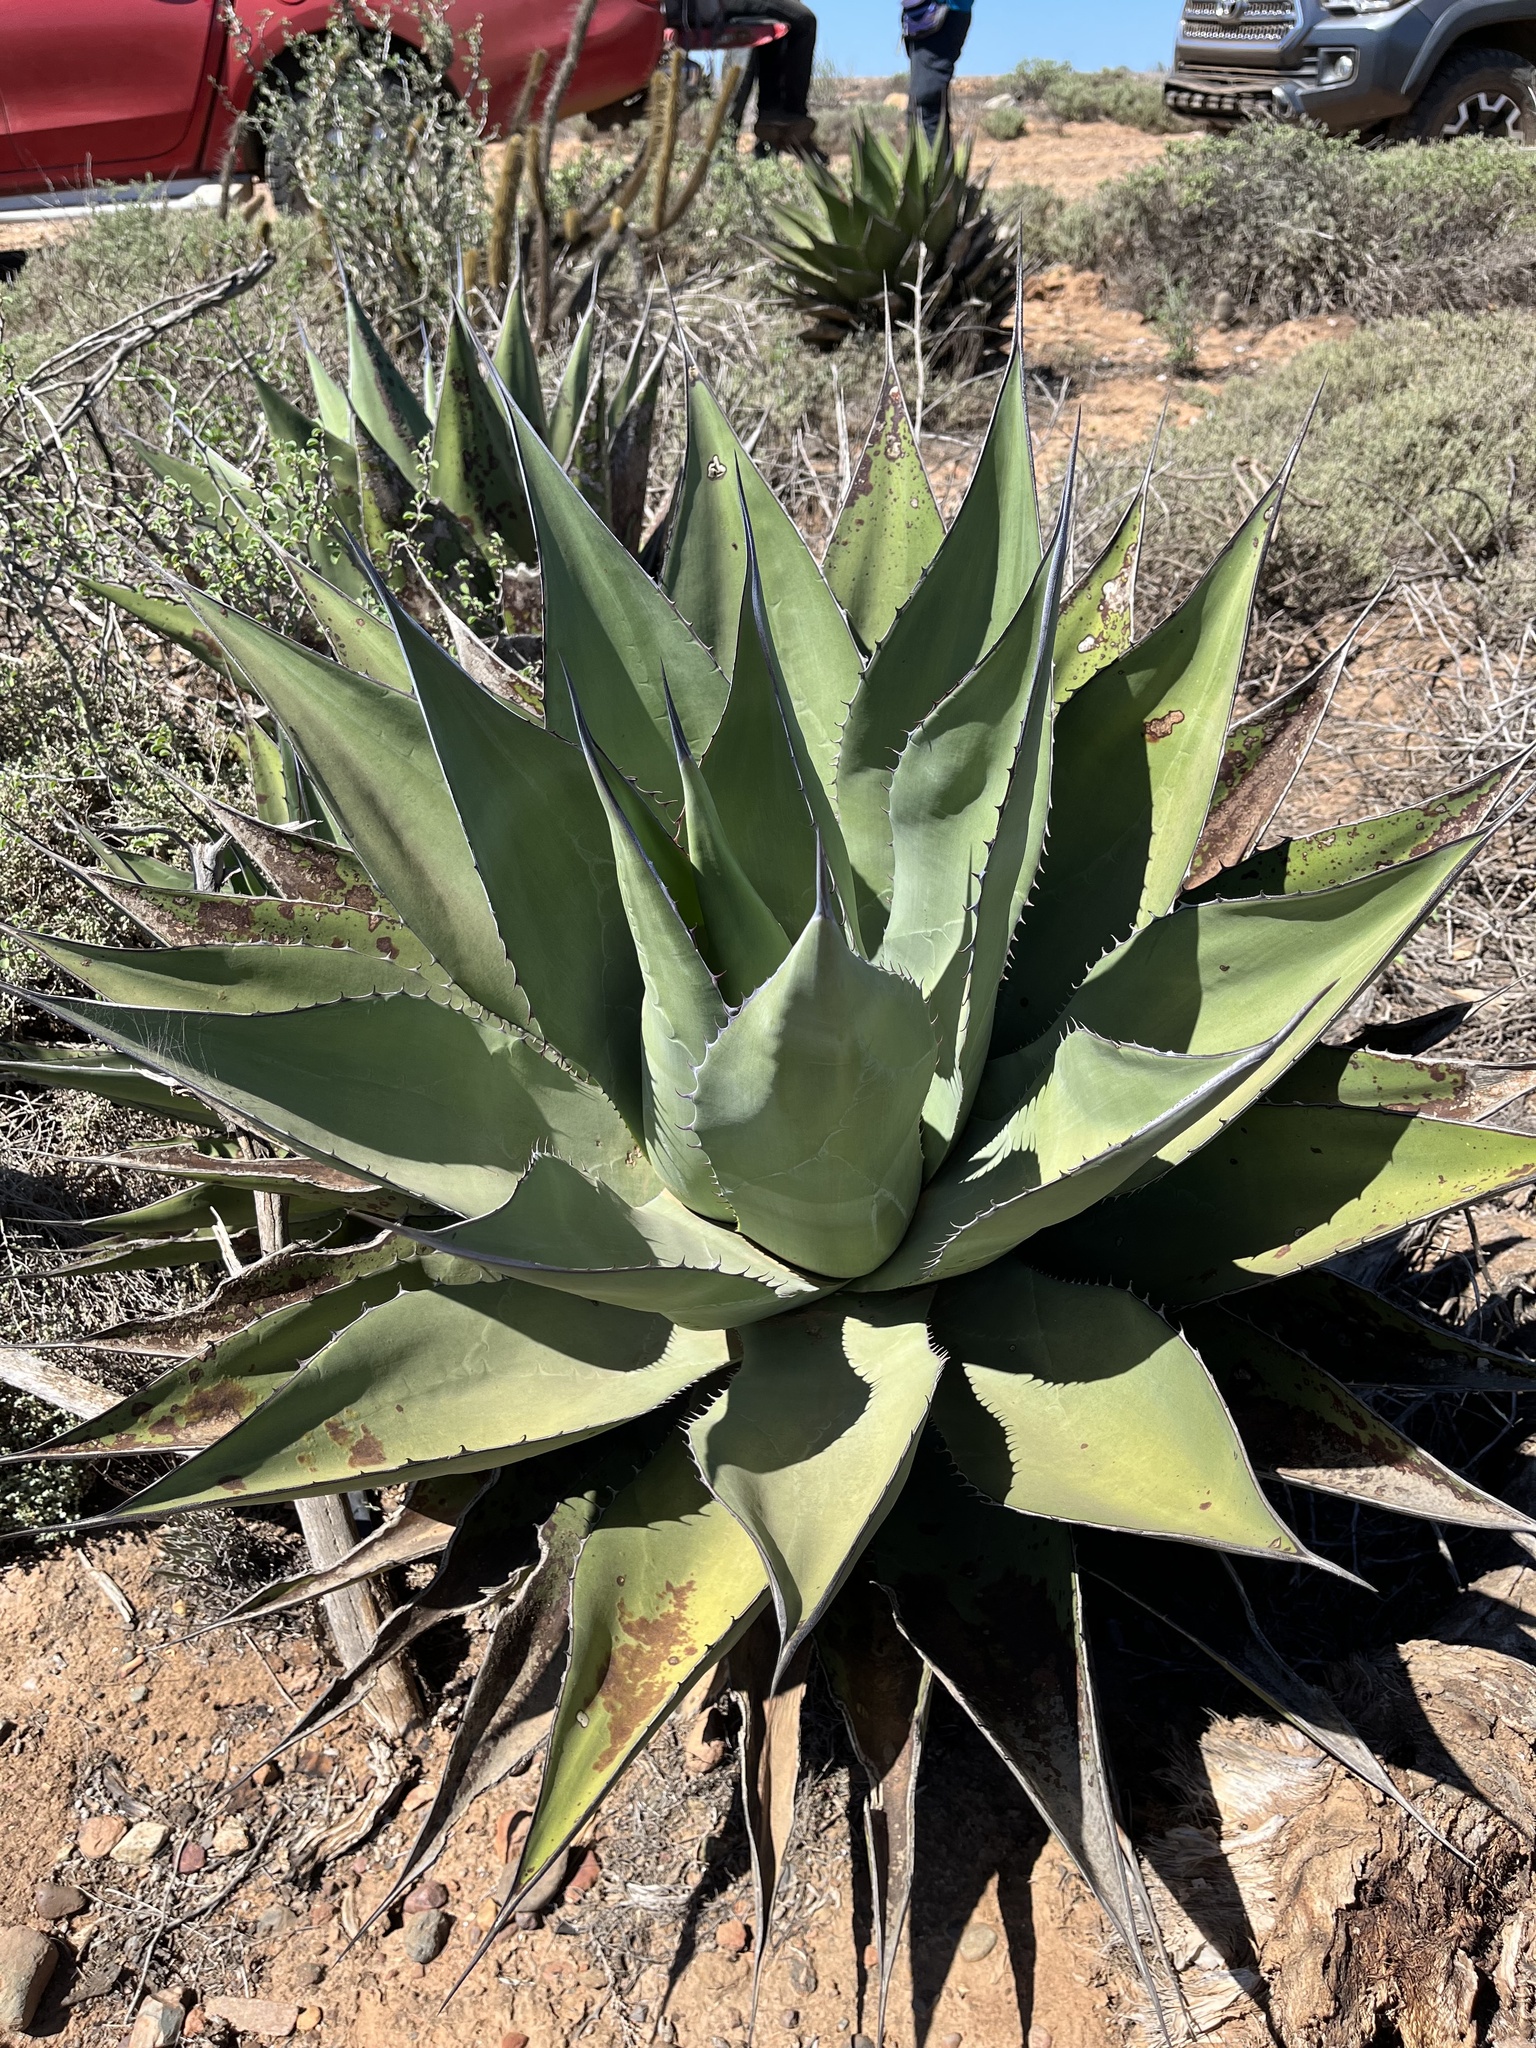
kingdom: Plantae
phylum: Tracheophyta
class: Liliopsida
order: Asparagales
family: Asparagaceae
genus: Agave
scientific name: Agave shawii
